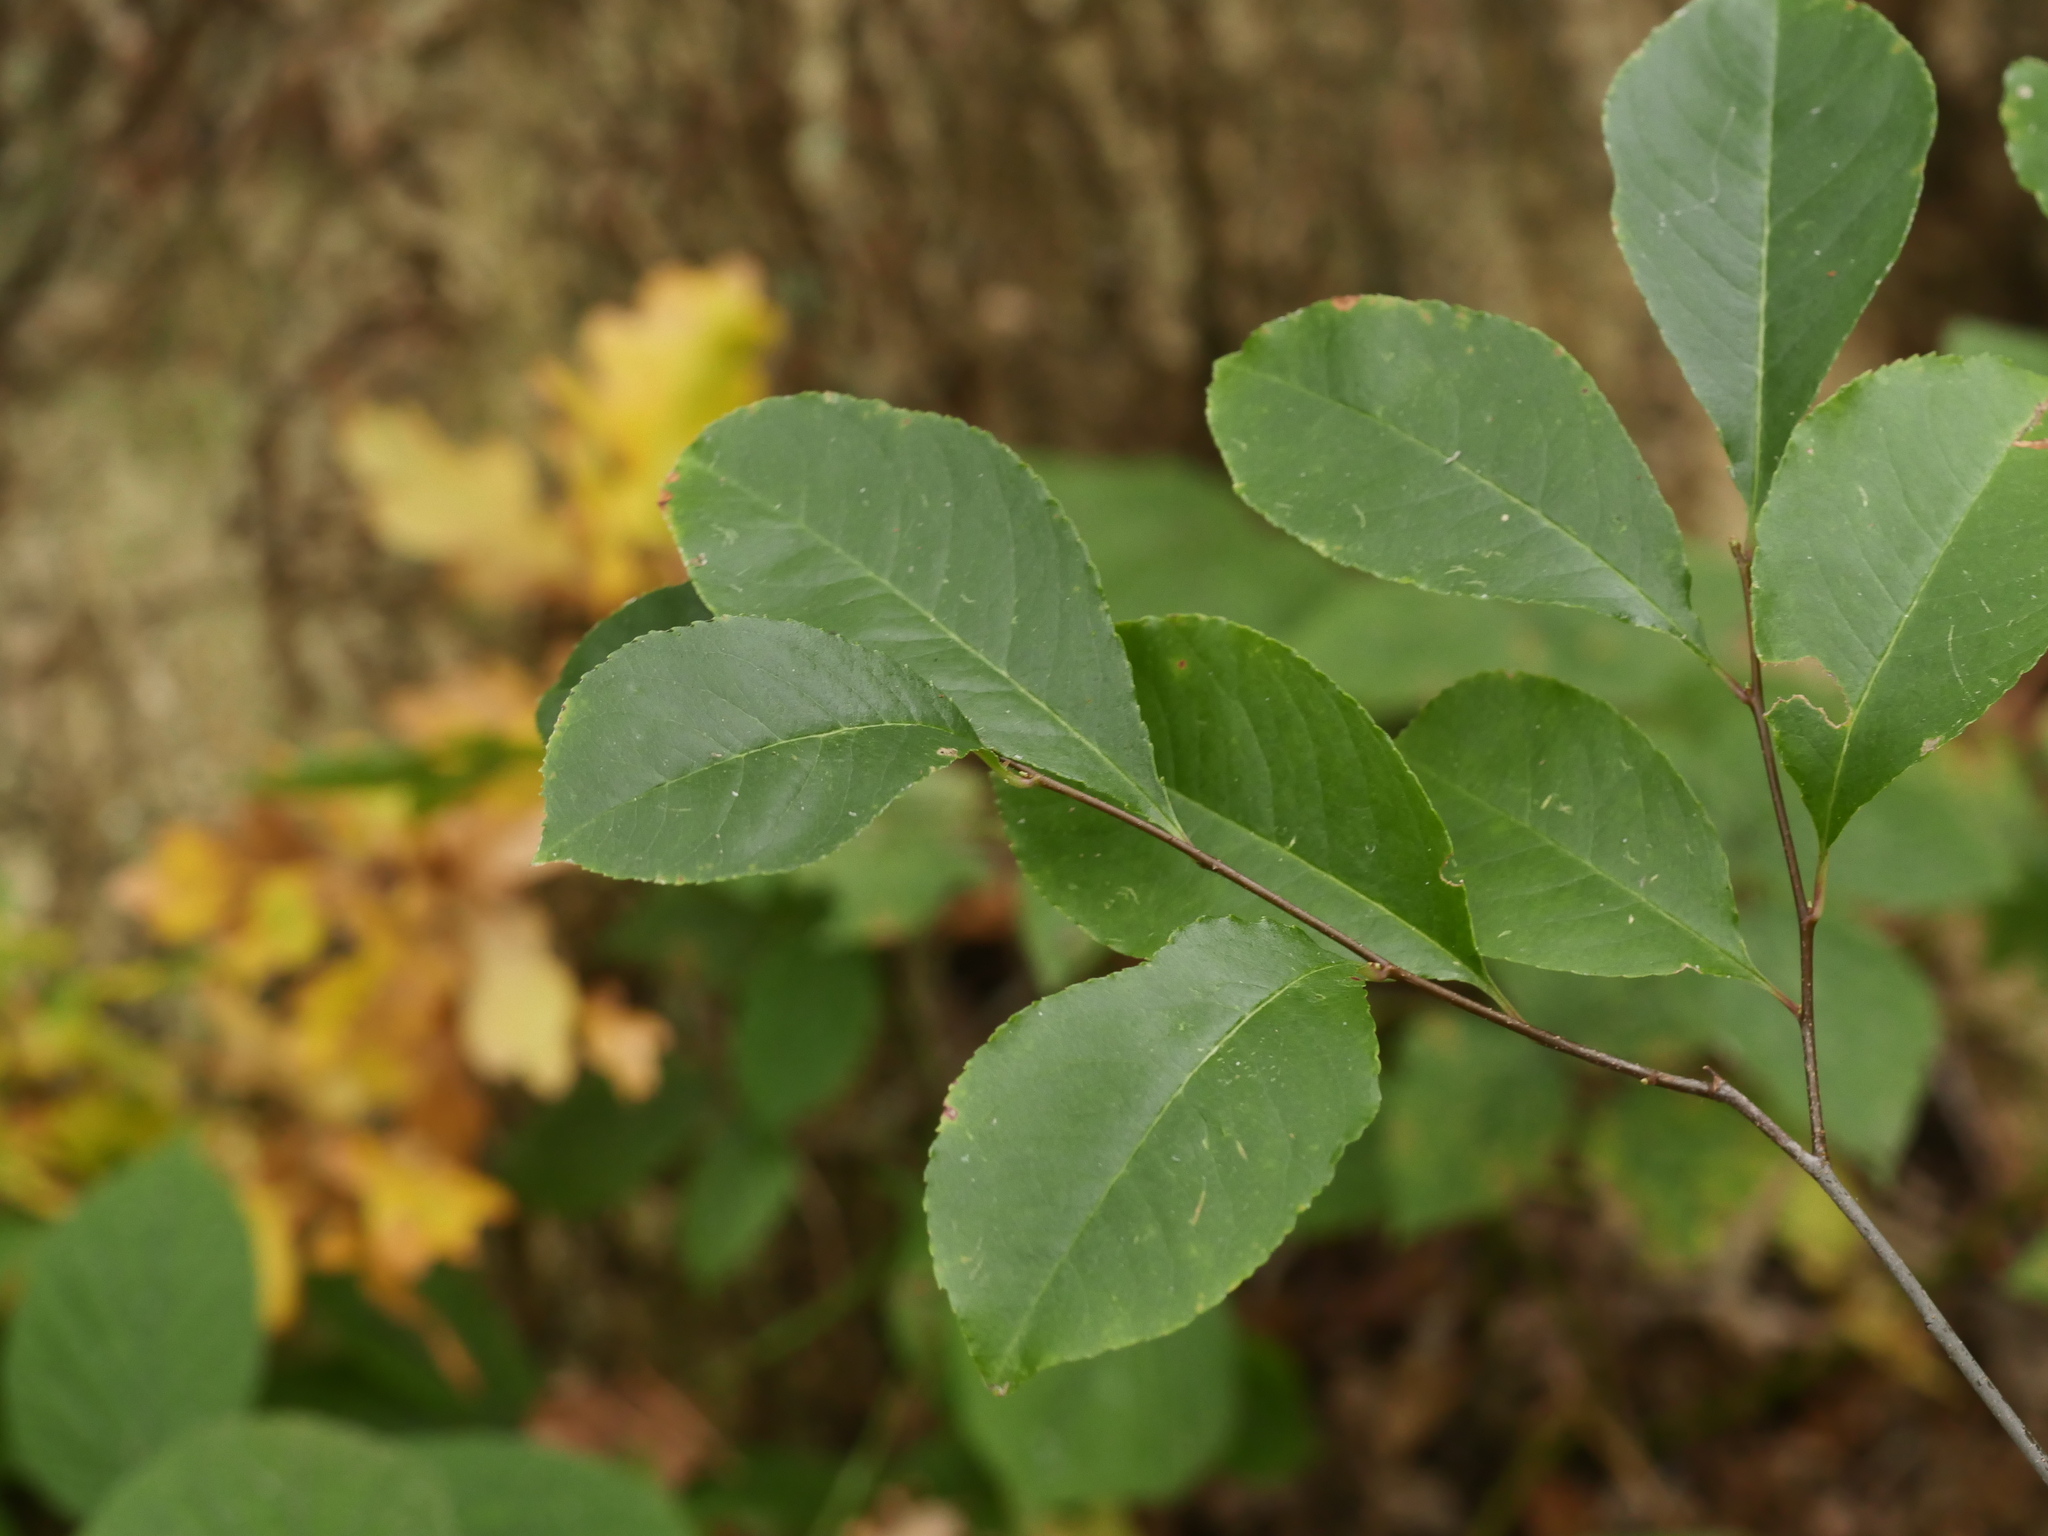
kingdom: Plantae
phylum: Tracheophyta
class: Magnoliopsida
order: Rosales
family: Rosaceae
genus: Prunus
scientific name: Prunus serotina
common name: Black cherry
